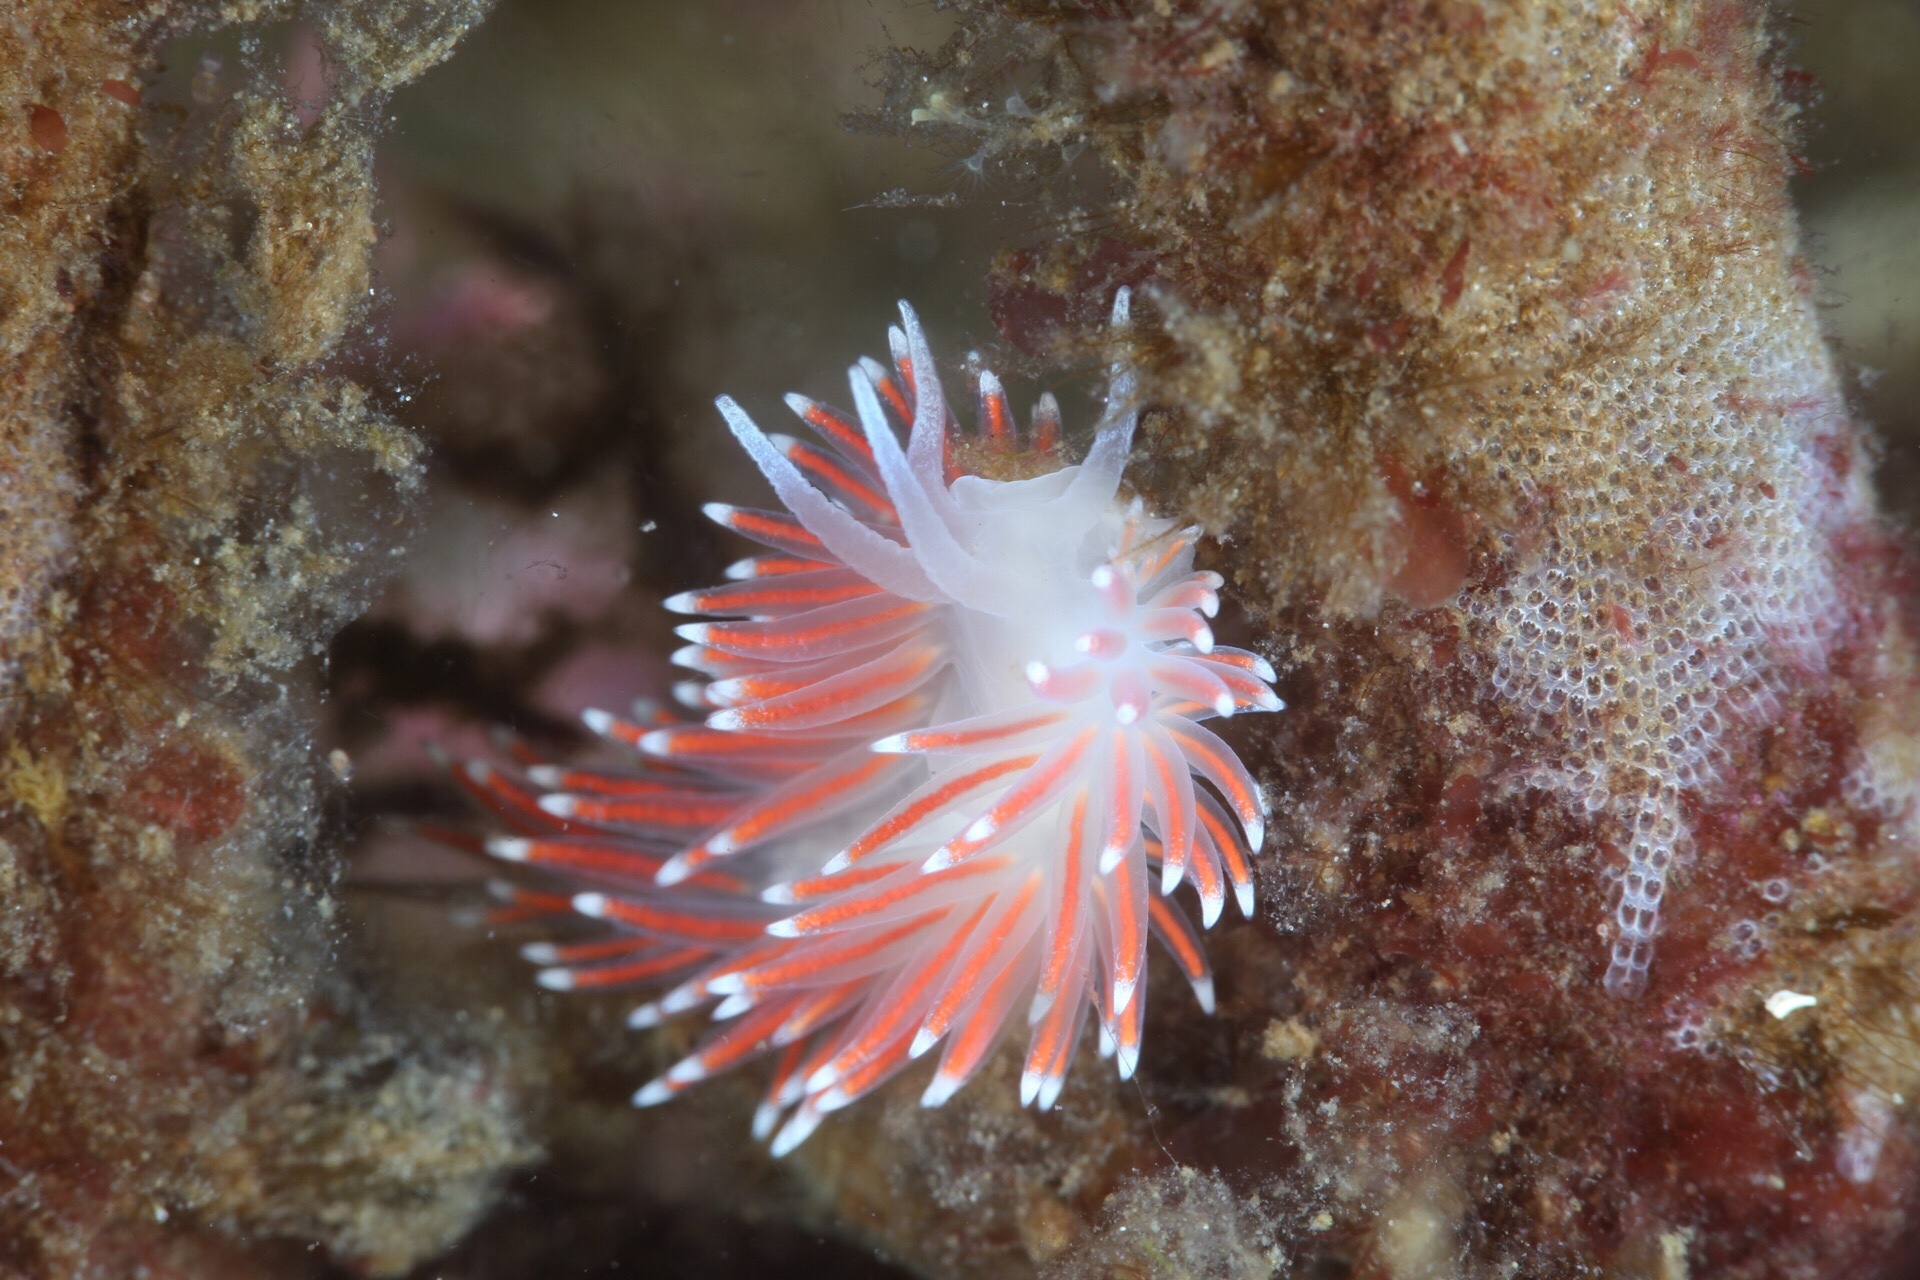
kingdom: Animalia
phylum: Mollusca
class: Gastropoda
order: Nudibranchia
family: Flabellinidae
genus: Carronella
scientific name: Carronella pellucida
